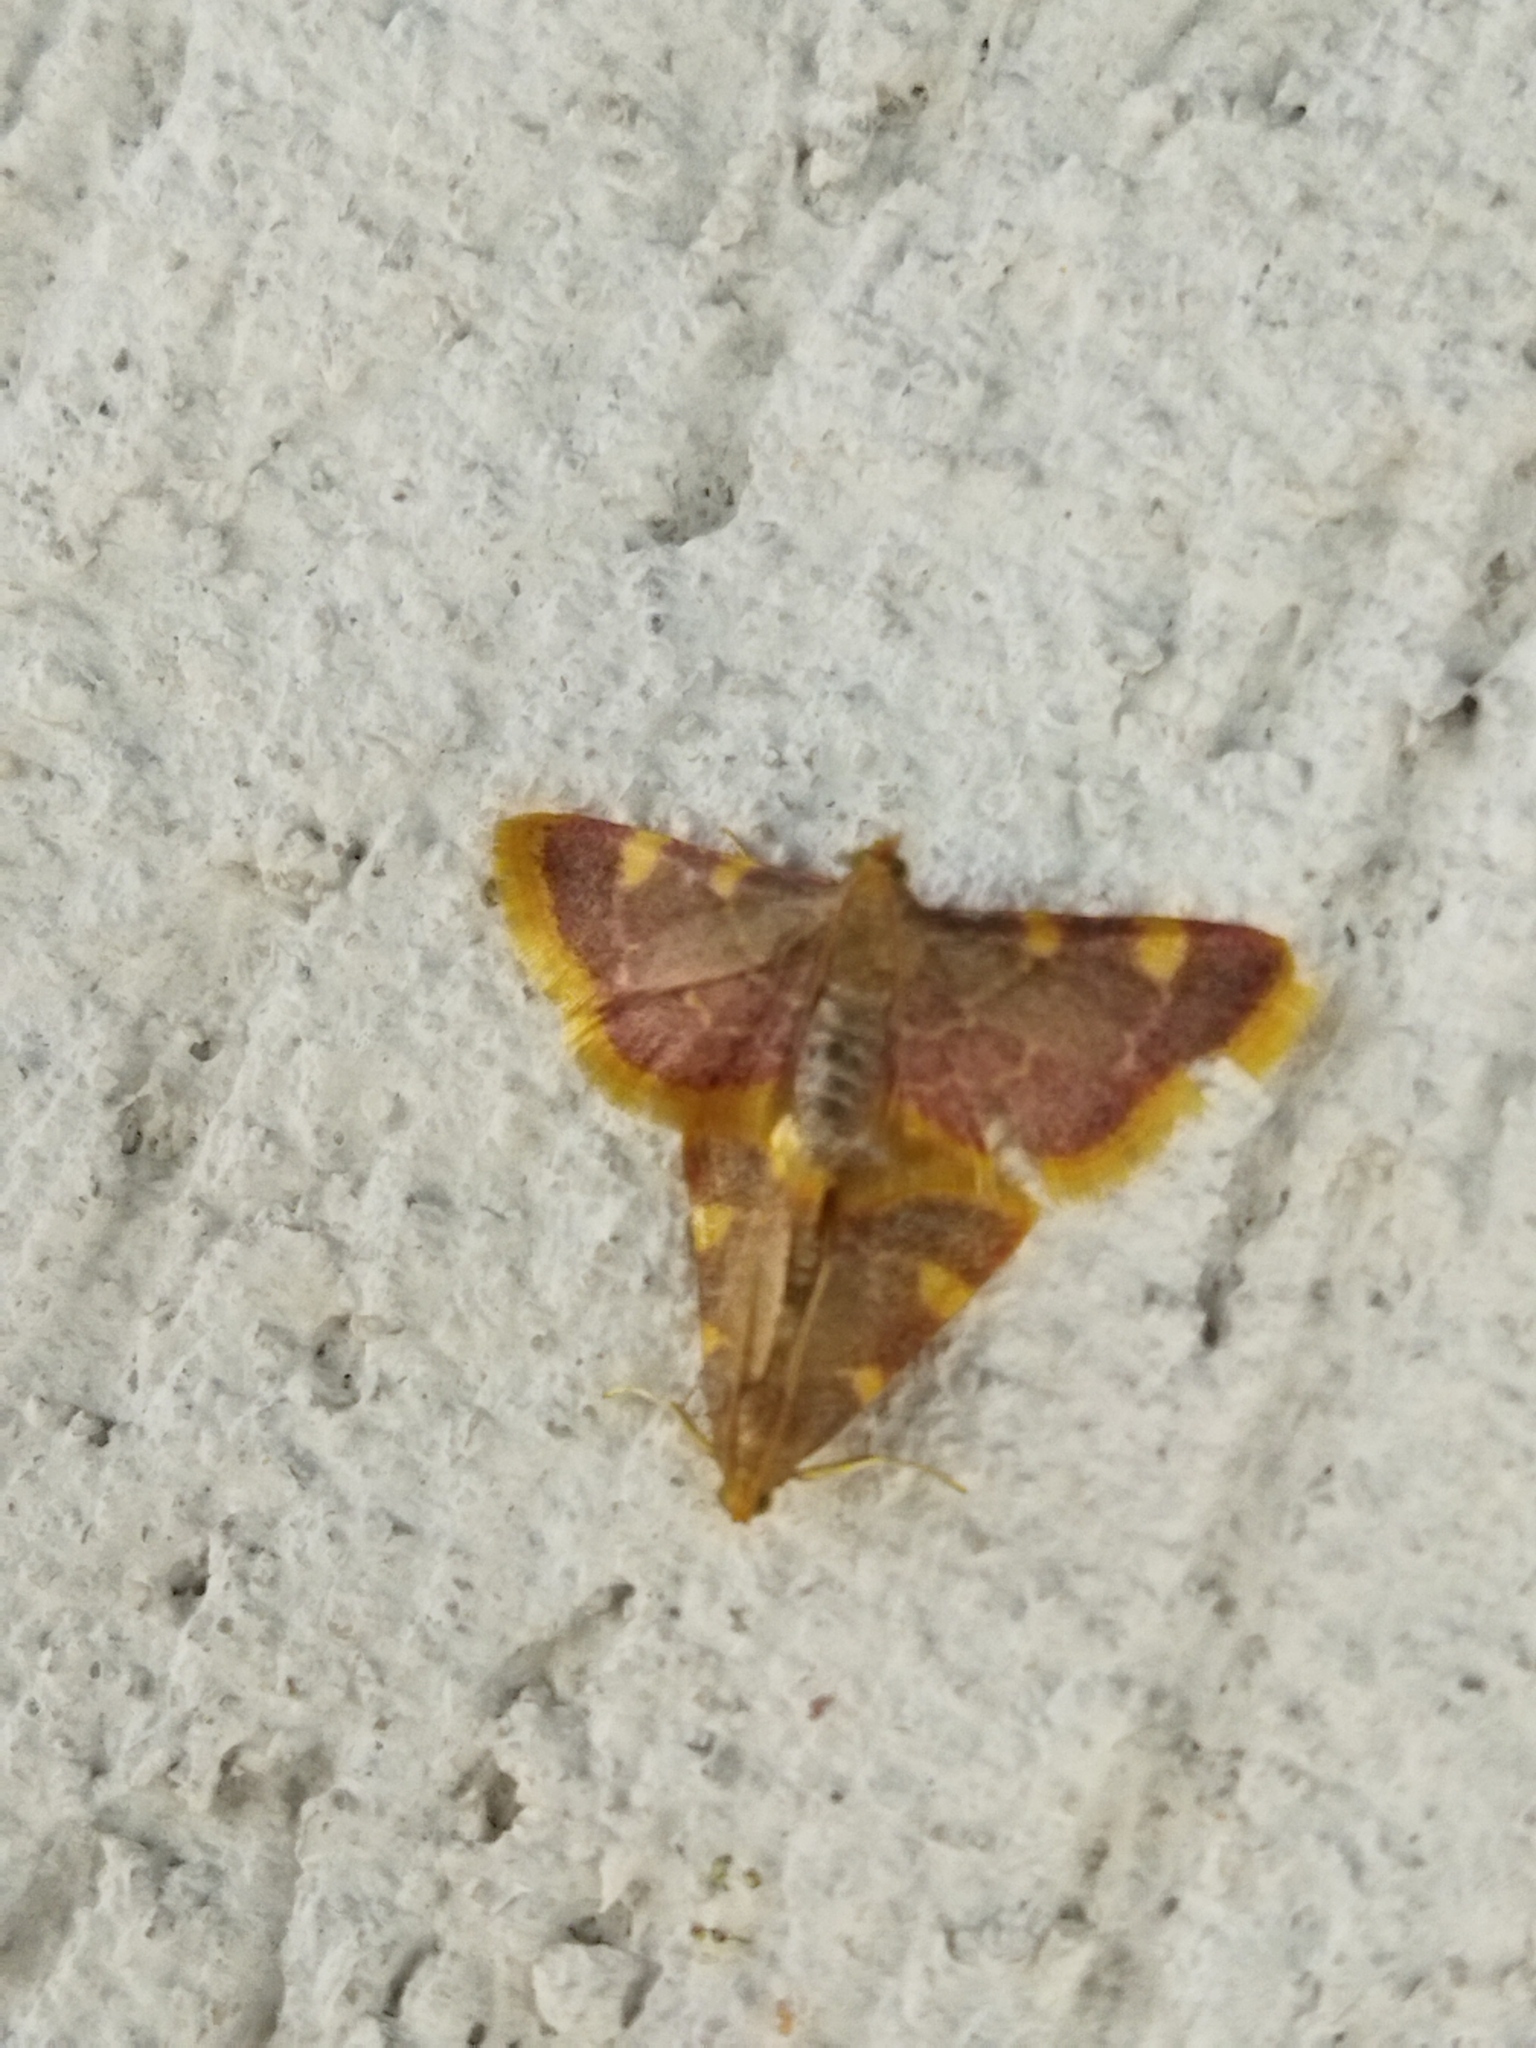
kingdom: Animalia
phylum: Arthropoda
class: Insecta
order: Lepidoptera
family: Pyralidae
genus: Hypsopygia
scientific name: Hypsopygia costalis
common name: Gold triangle
